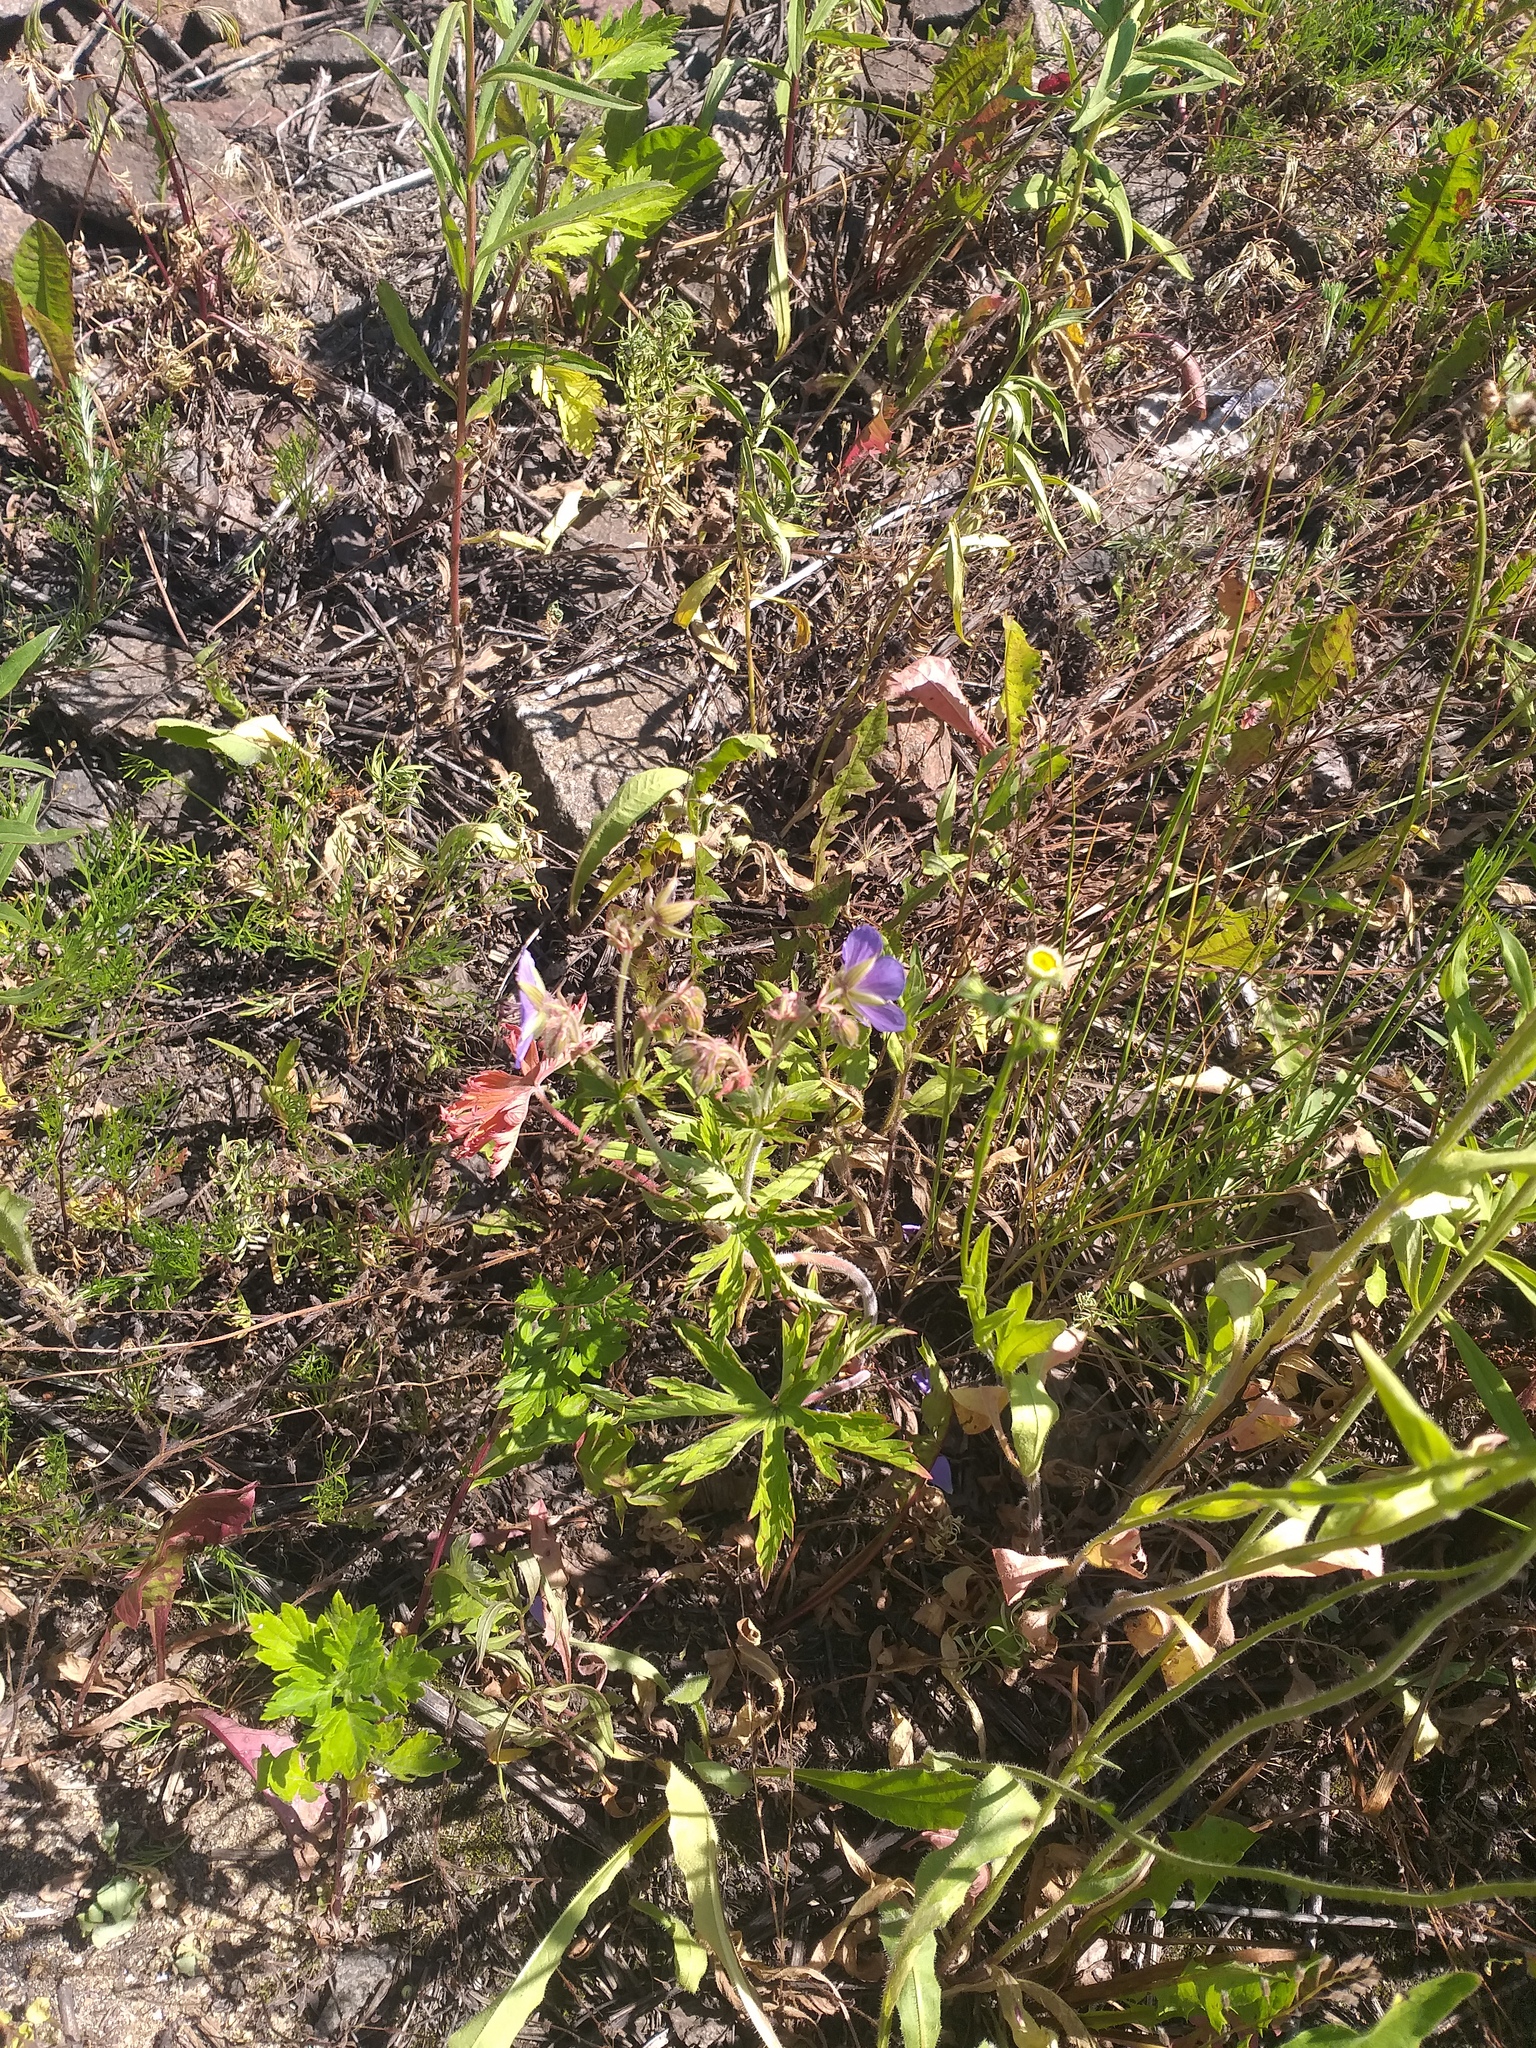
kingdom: Plantae
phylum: Tracheophyta
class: Magnoliopsida
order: Geraniales
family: Geraniaceae
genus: Geranium
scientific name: Geranium pratense
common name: Meadow crane's-bill
